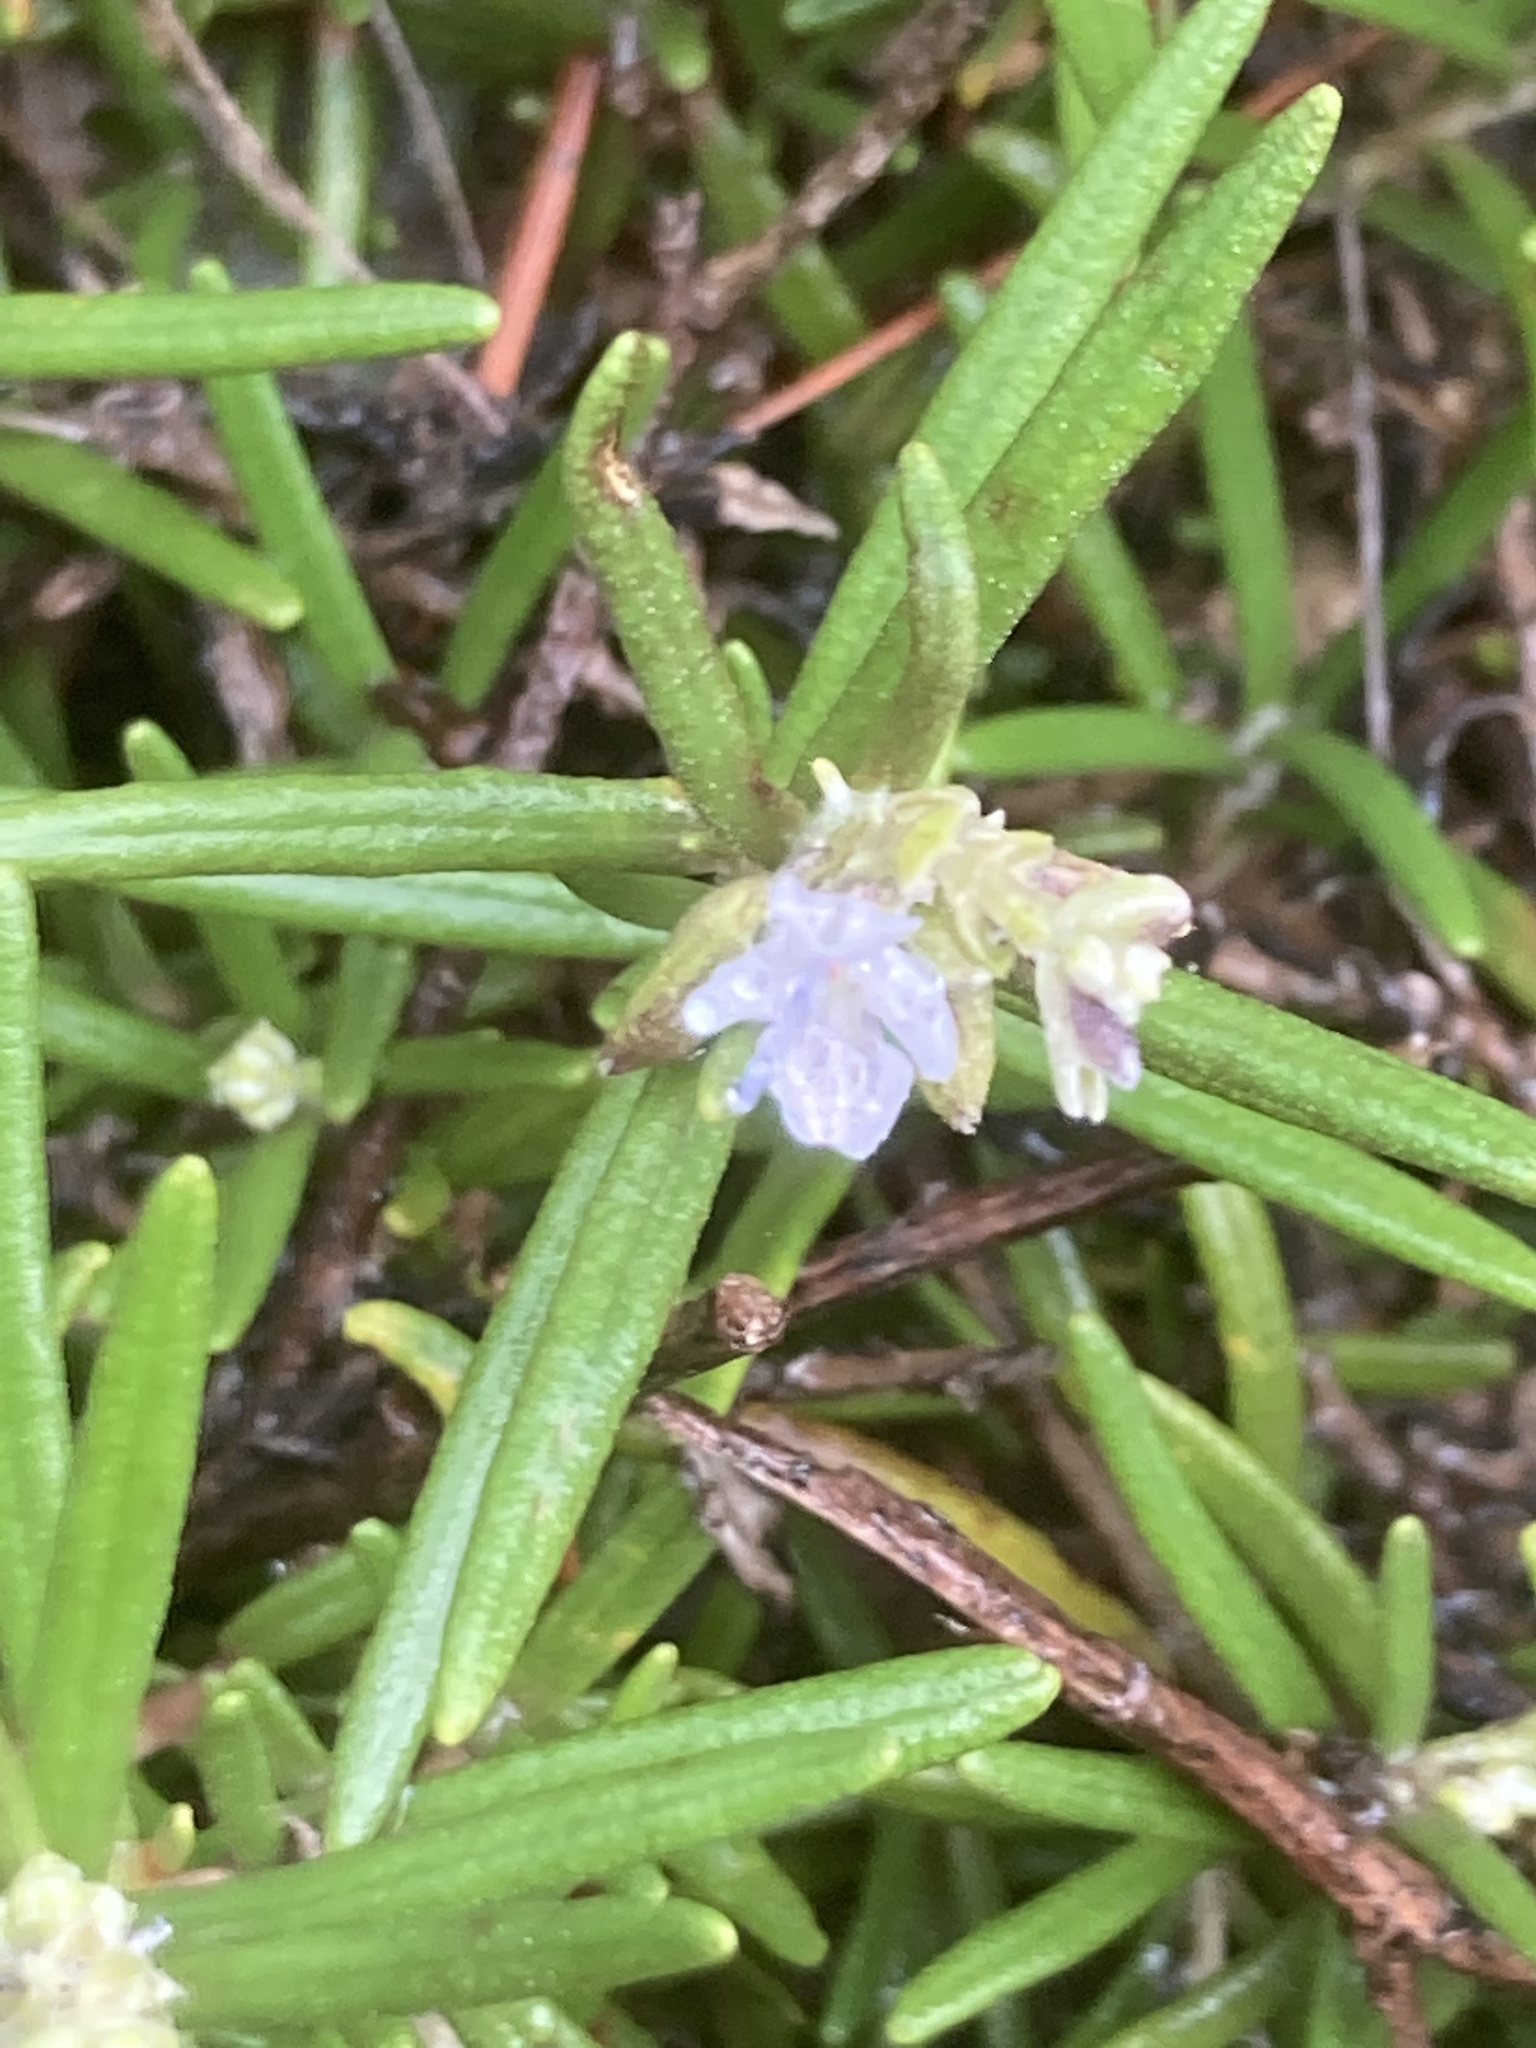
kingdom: Plantae
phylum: Tracheophyta
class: Magnoliopsida
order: Lamiales
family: Lamiaceae
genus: Salvia
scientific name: Salvia rosmarinus
